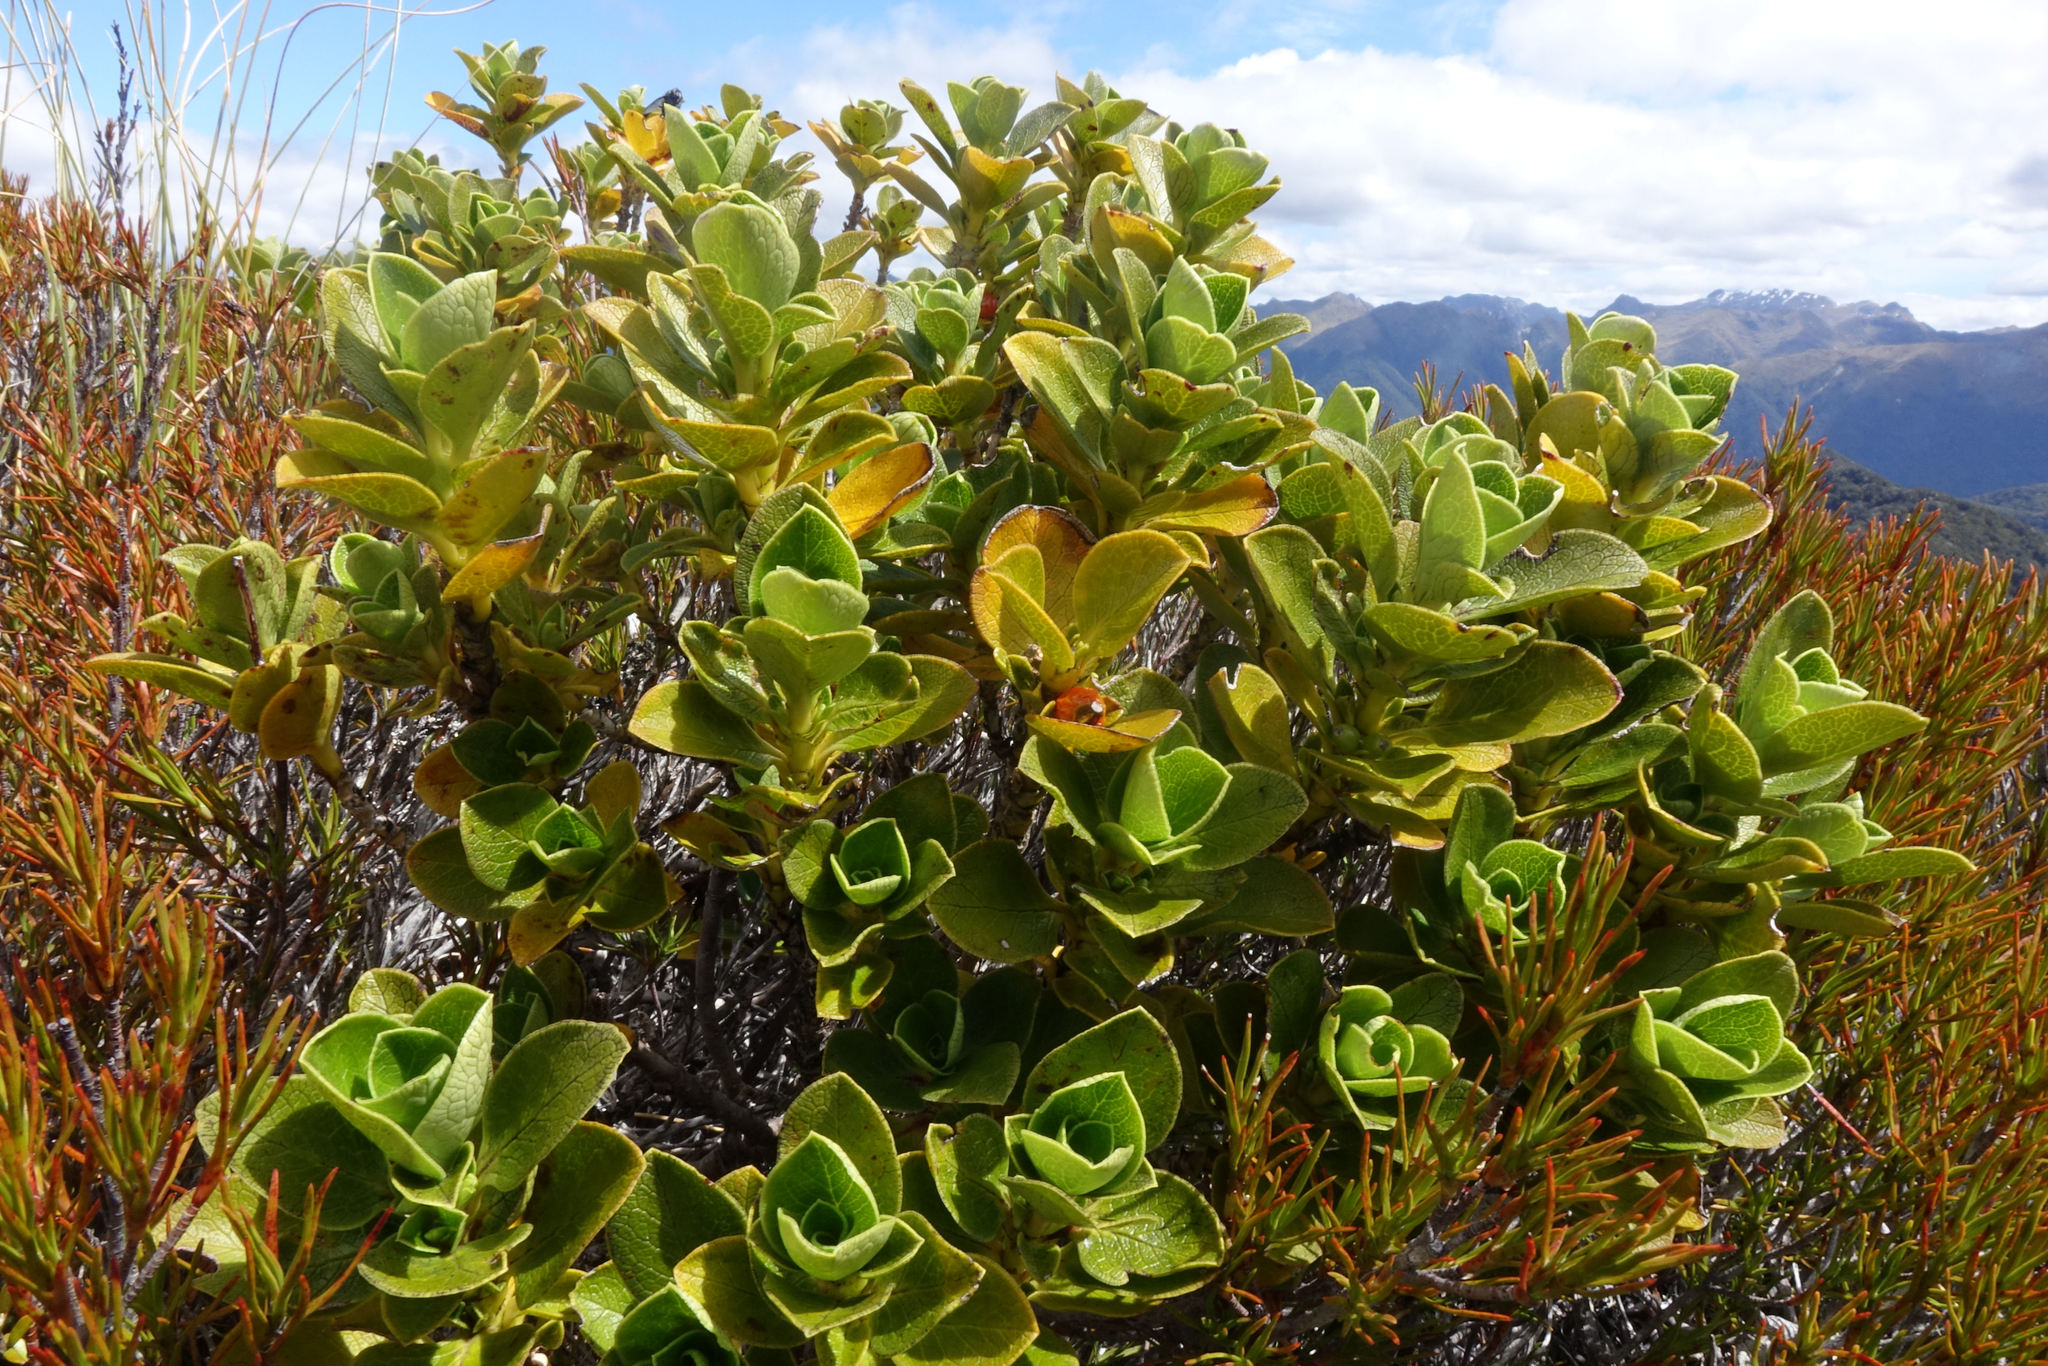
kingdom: Plantae
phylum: Tracheophyta
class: Magnoliopsida
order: Gentianales
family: Rubiaceae
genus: Coprosma
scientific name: Coprosma serrulata
